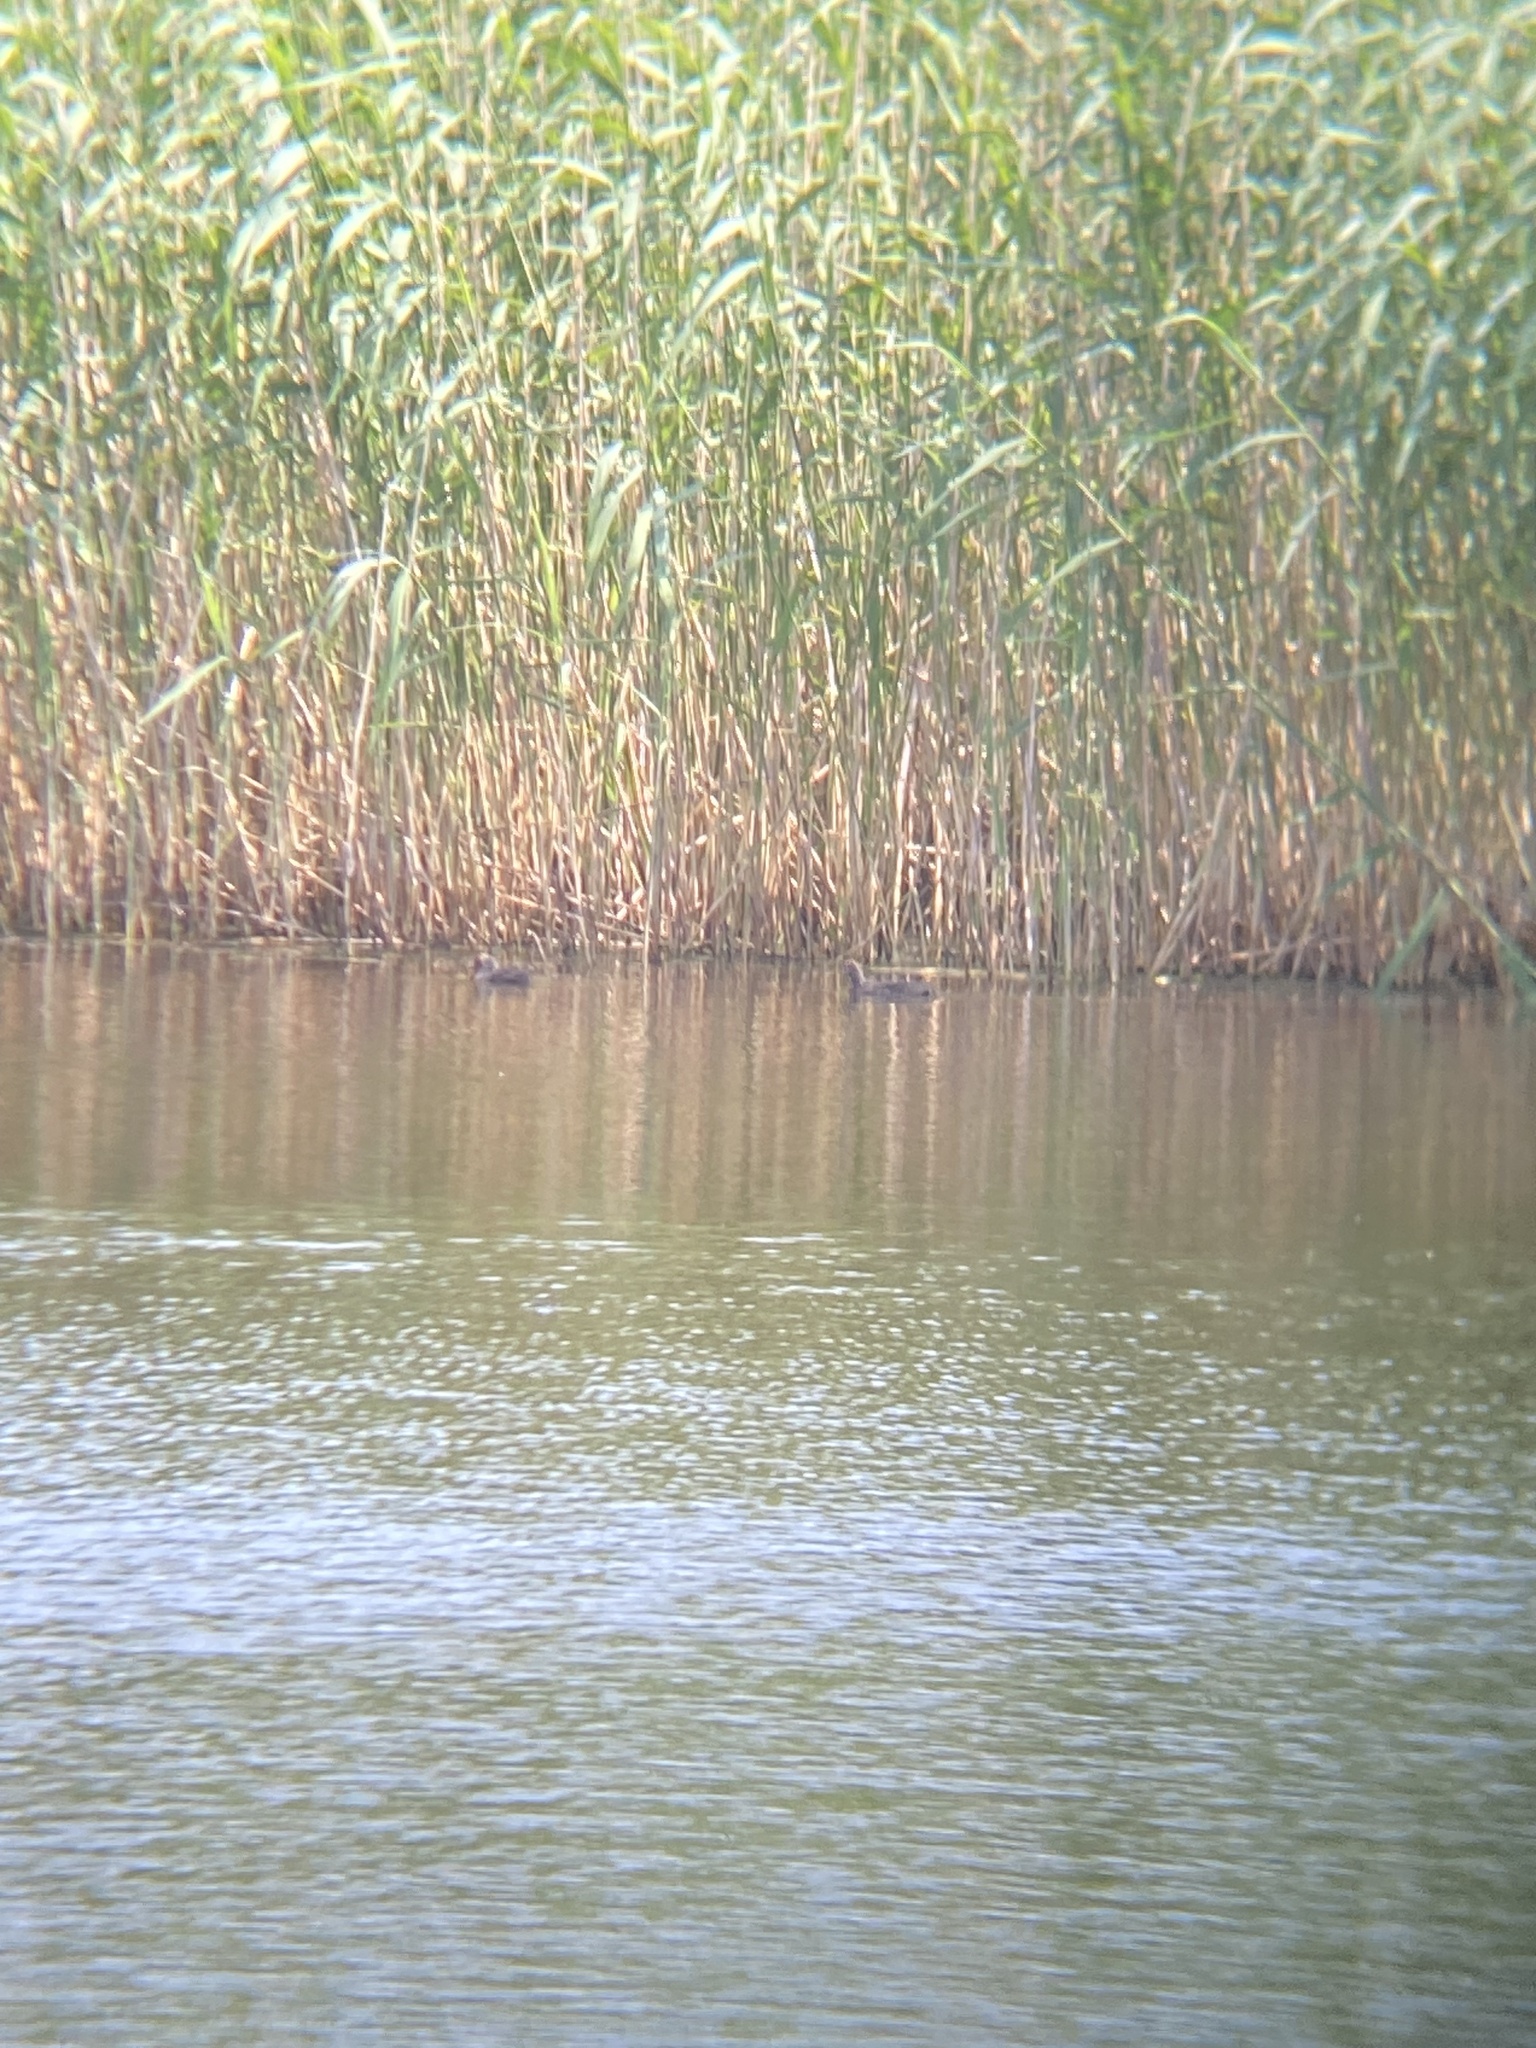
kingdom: Animalia
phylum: Chordata
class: Aves
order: Gruiformes
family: Rallidae
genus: Fulica
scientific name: Fulica atra
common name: Eurasian coot
